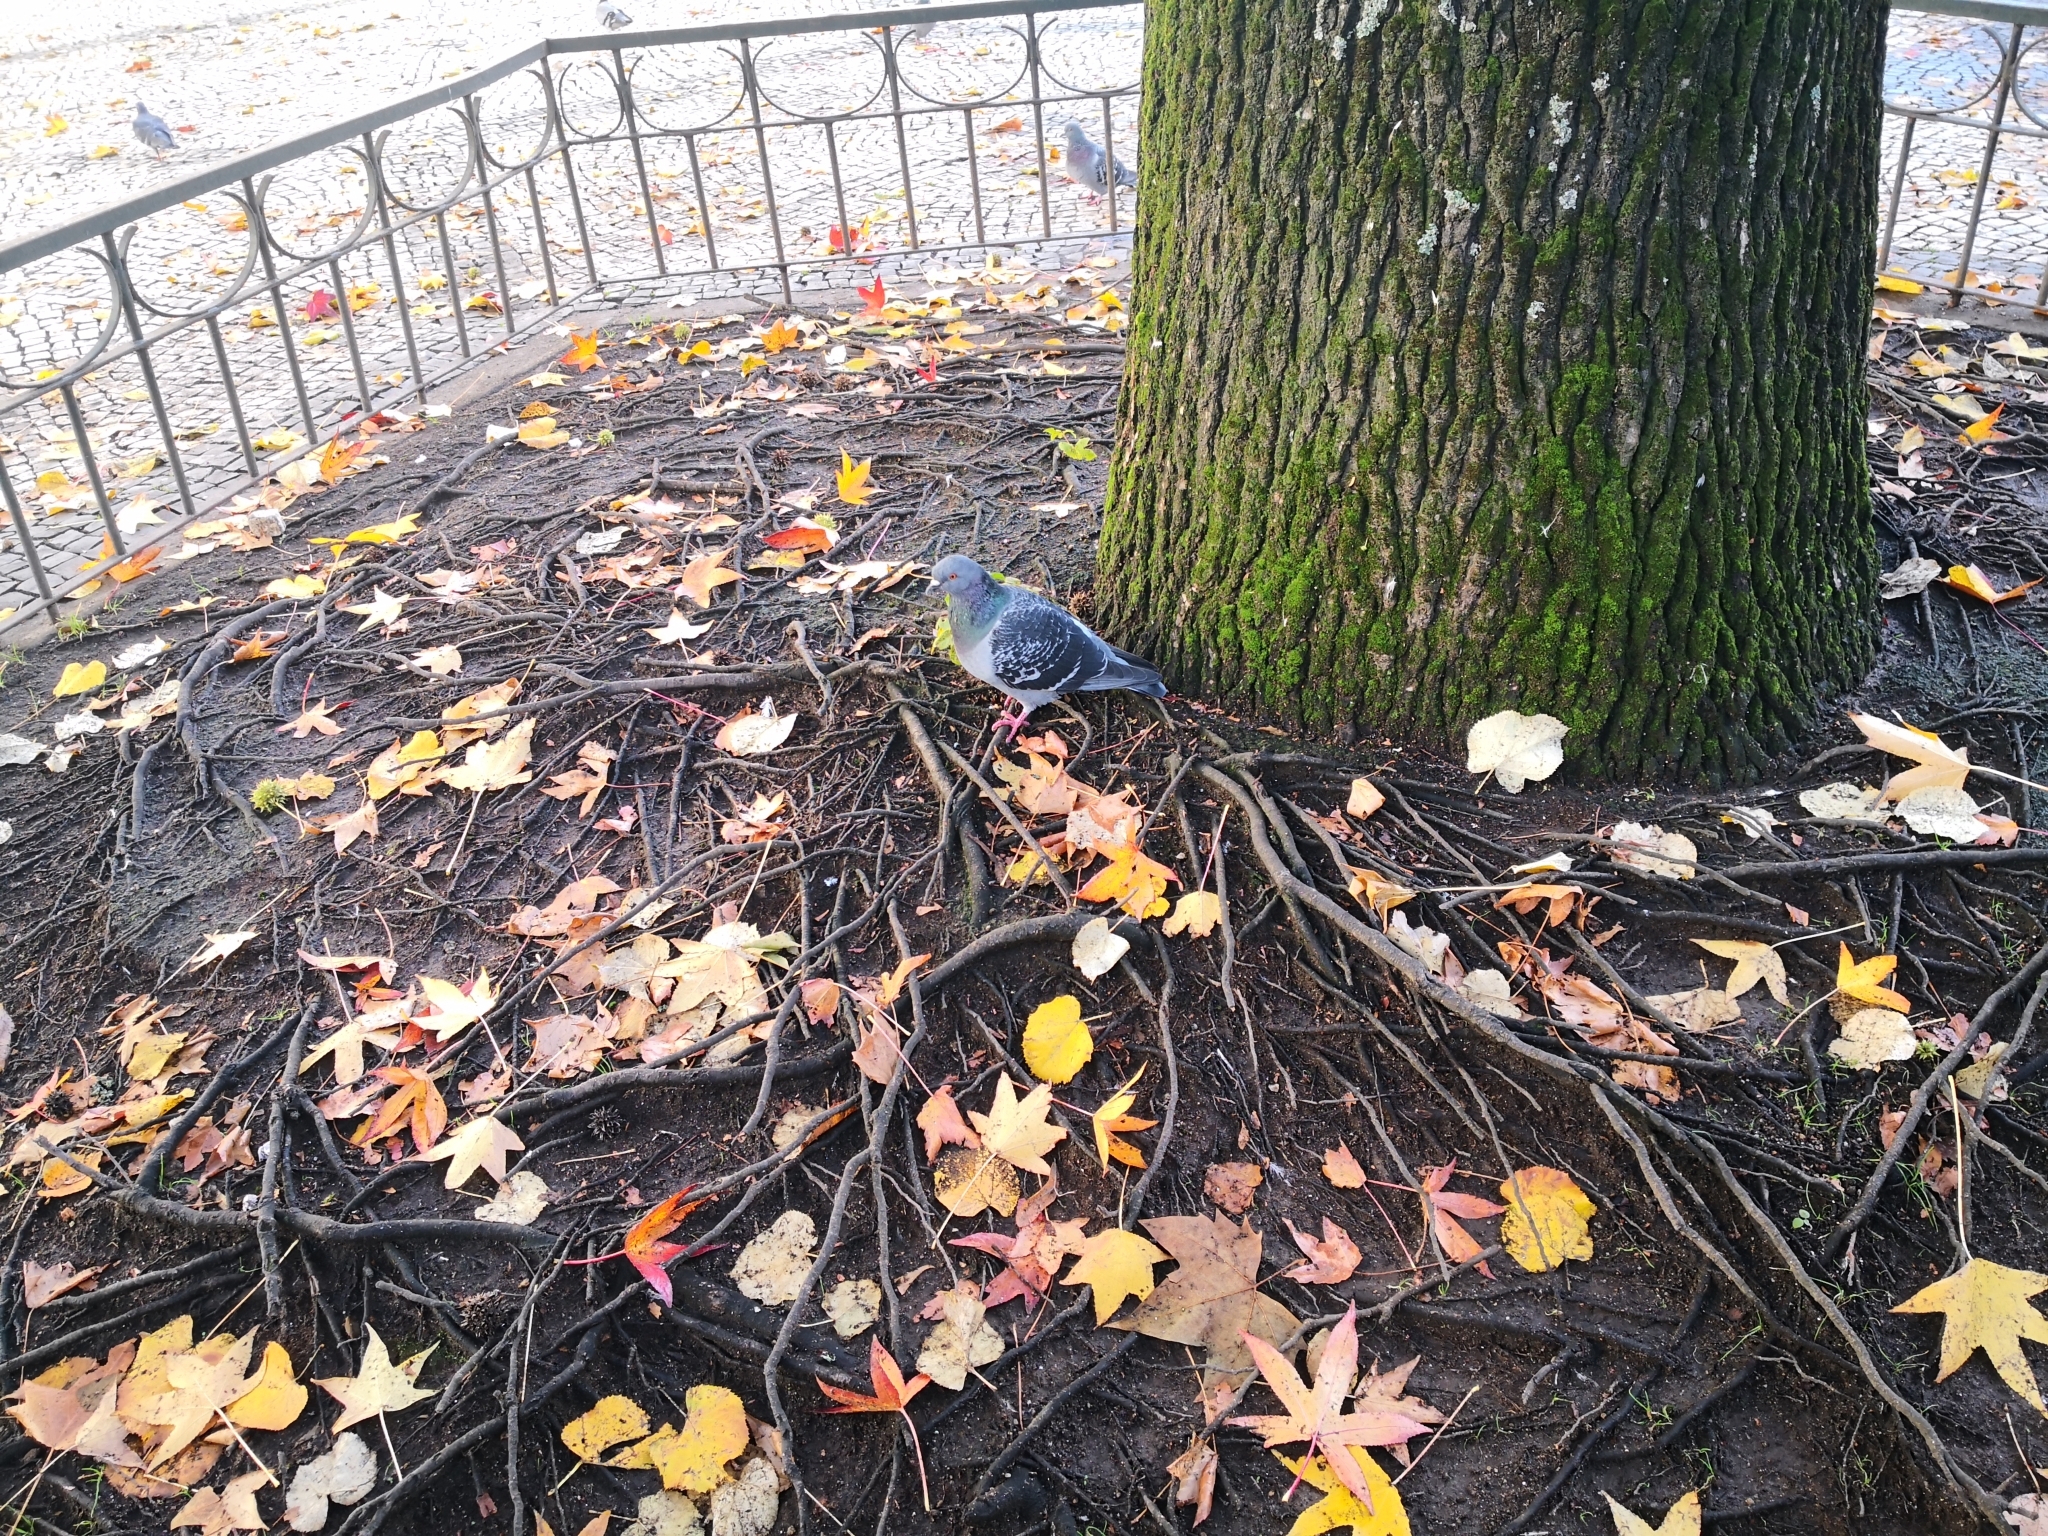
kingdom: Animalia
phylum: Chordata
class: Aves
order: Columbiformes
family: Columbidae
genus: Columba
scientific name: Columba livia
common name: Rock pigeon
